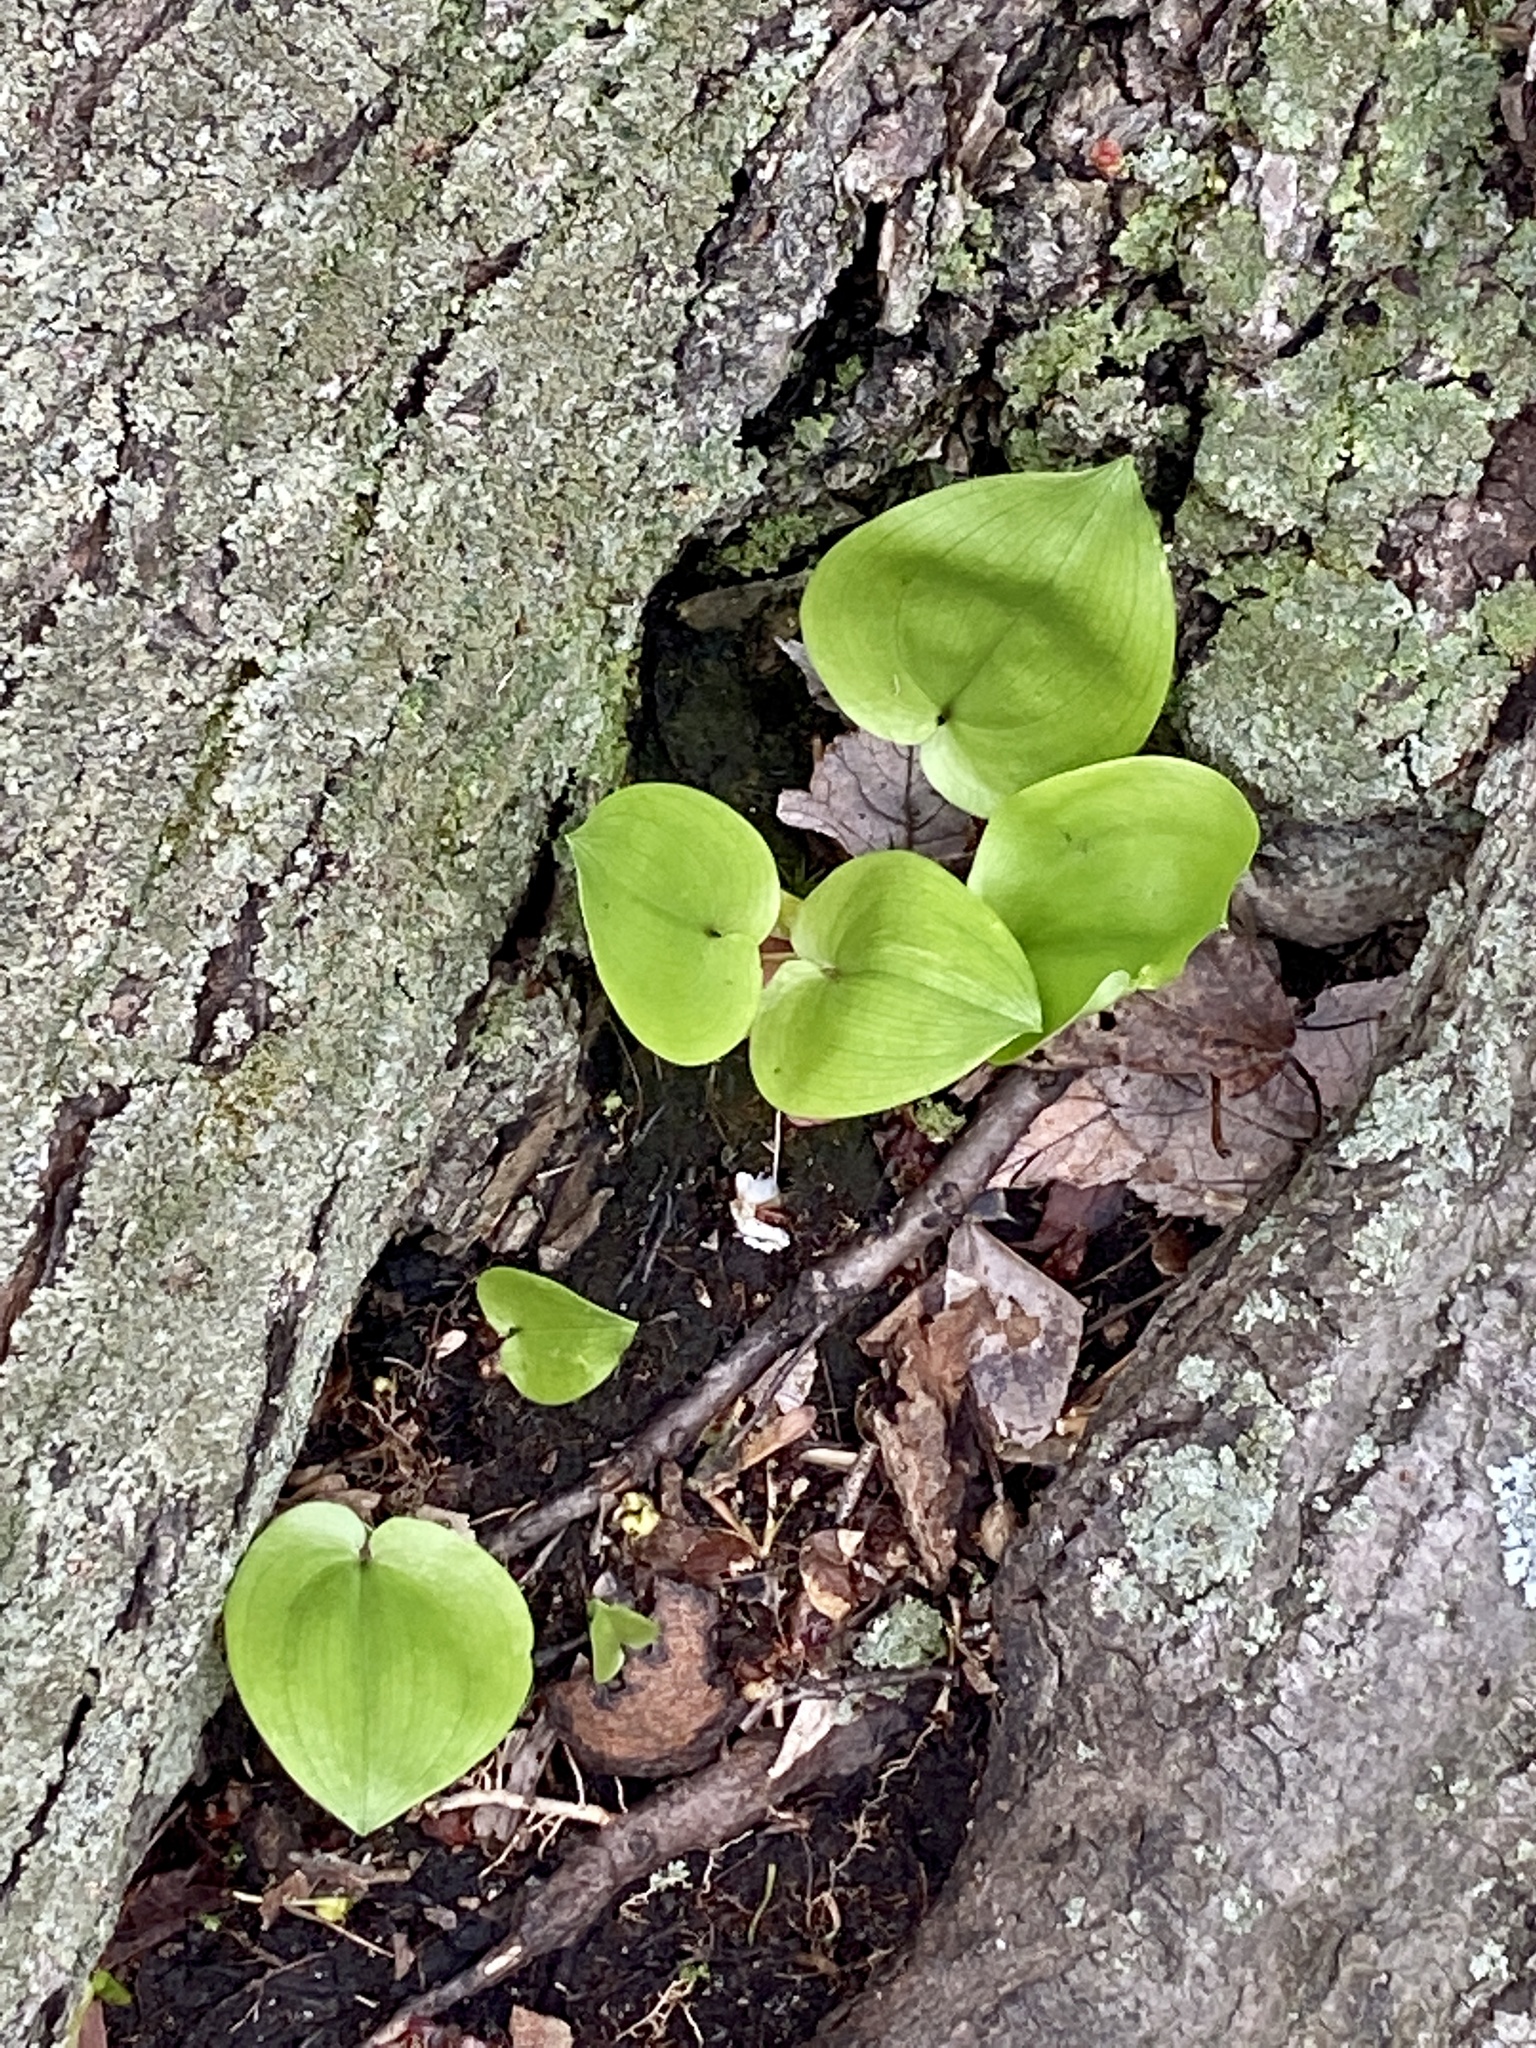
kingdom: Plantae
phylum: Tracheophyta
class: Liliopsida
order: Asparagales
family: Asparagaceae
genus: Maianthemum
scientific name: Maianthemum canadense
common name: False lily-of-the-valley
